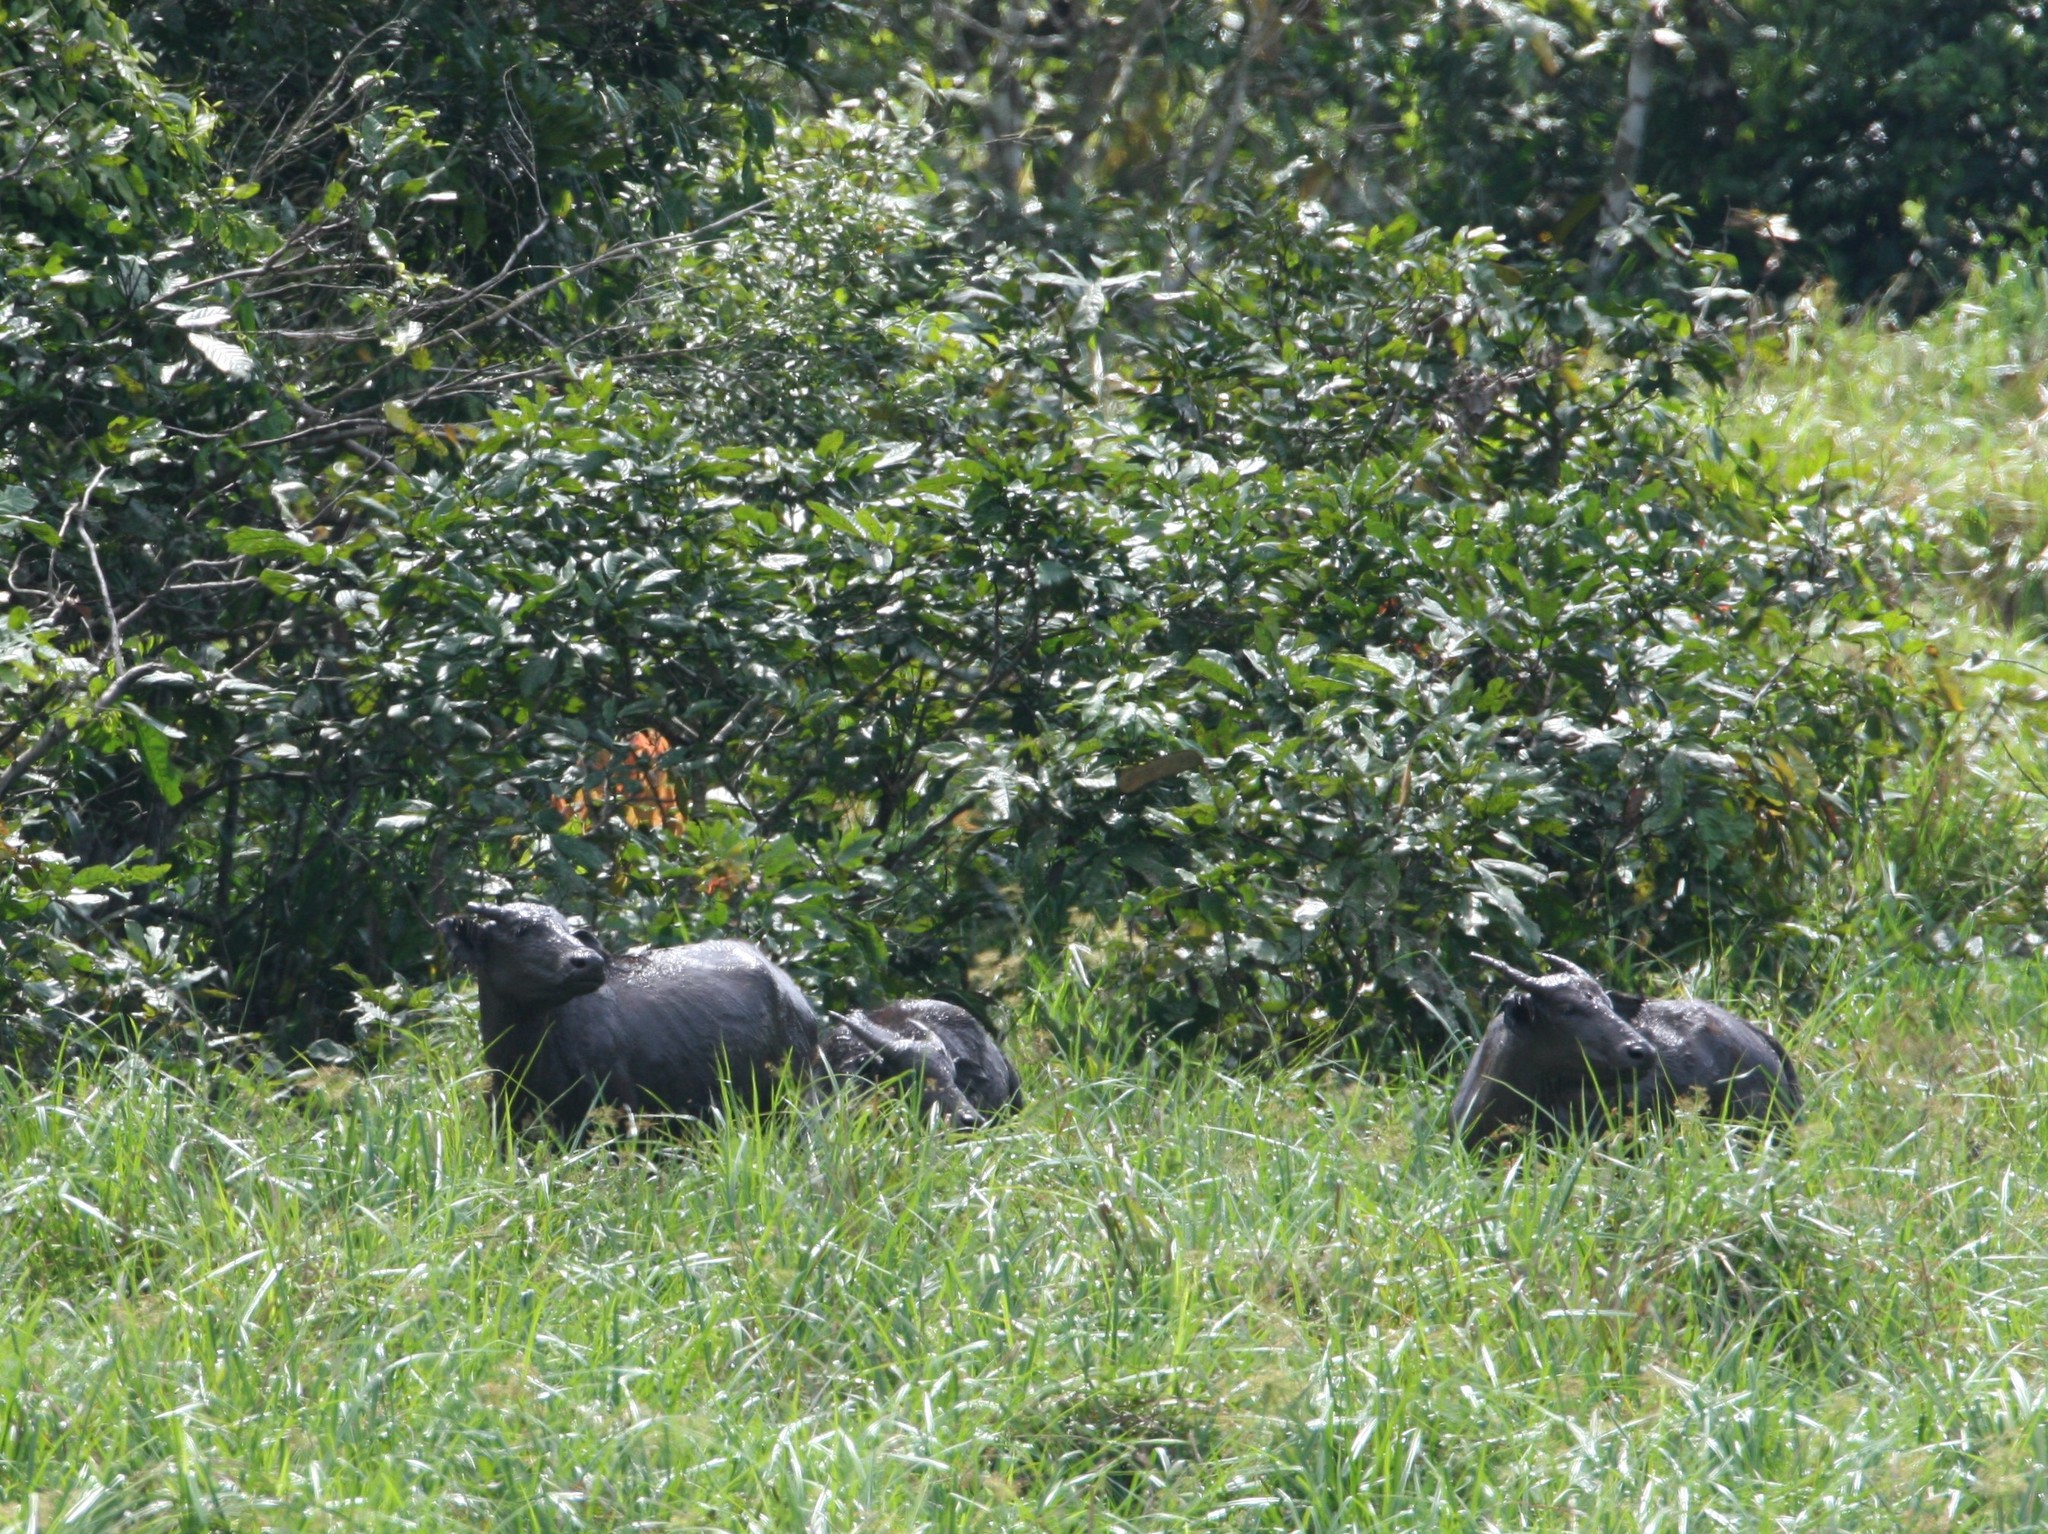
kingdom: Animalia
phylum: Chordata
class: Mammalia
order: Artiodactyla
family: Bovidae
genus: Syncerus
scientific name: Syncerus caffer
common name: African buffalo
